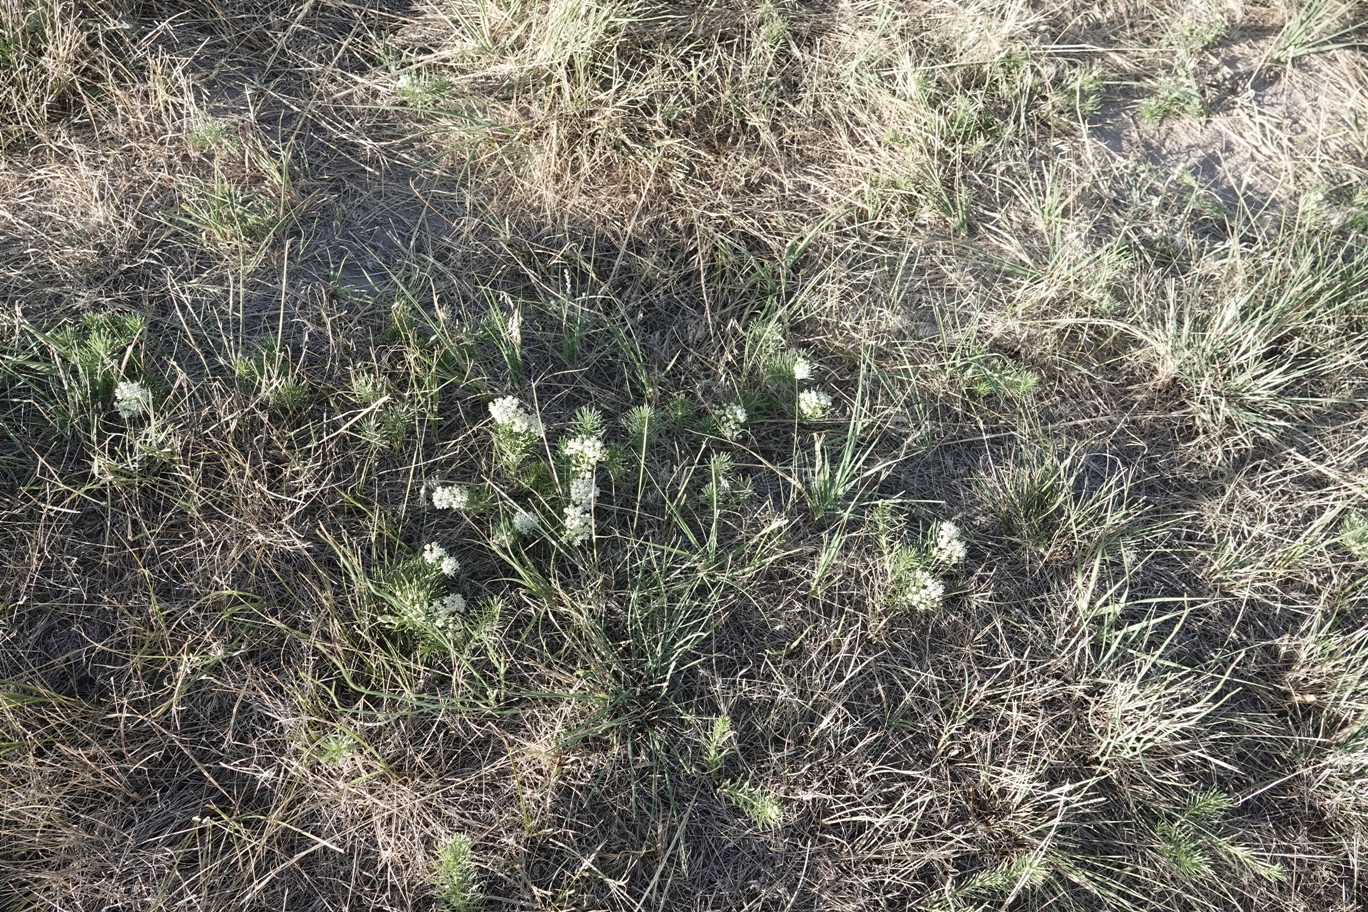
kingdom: Plantae
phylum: Tracheophyta
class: Magnoliopsida
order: Gentianales
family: Apocynaceae
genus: Asclepias
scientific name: Asclepias pumila
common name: Dwarf milkweed
